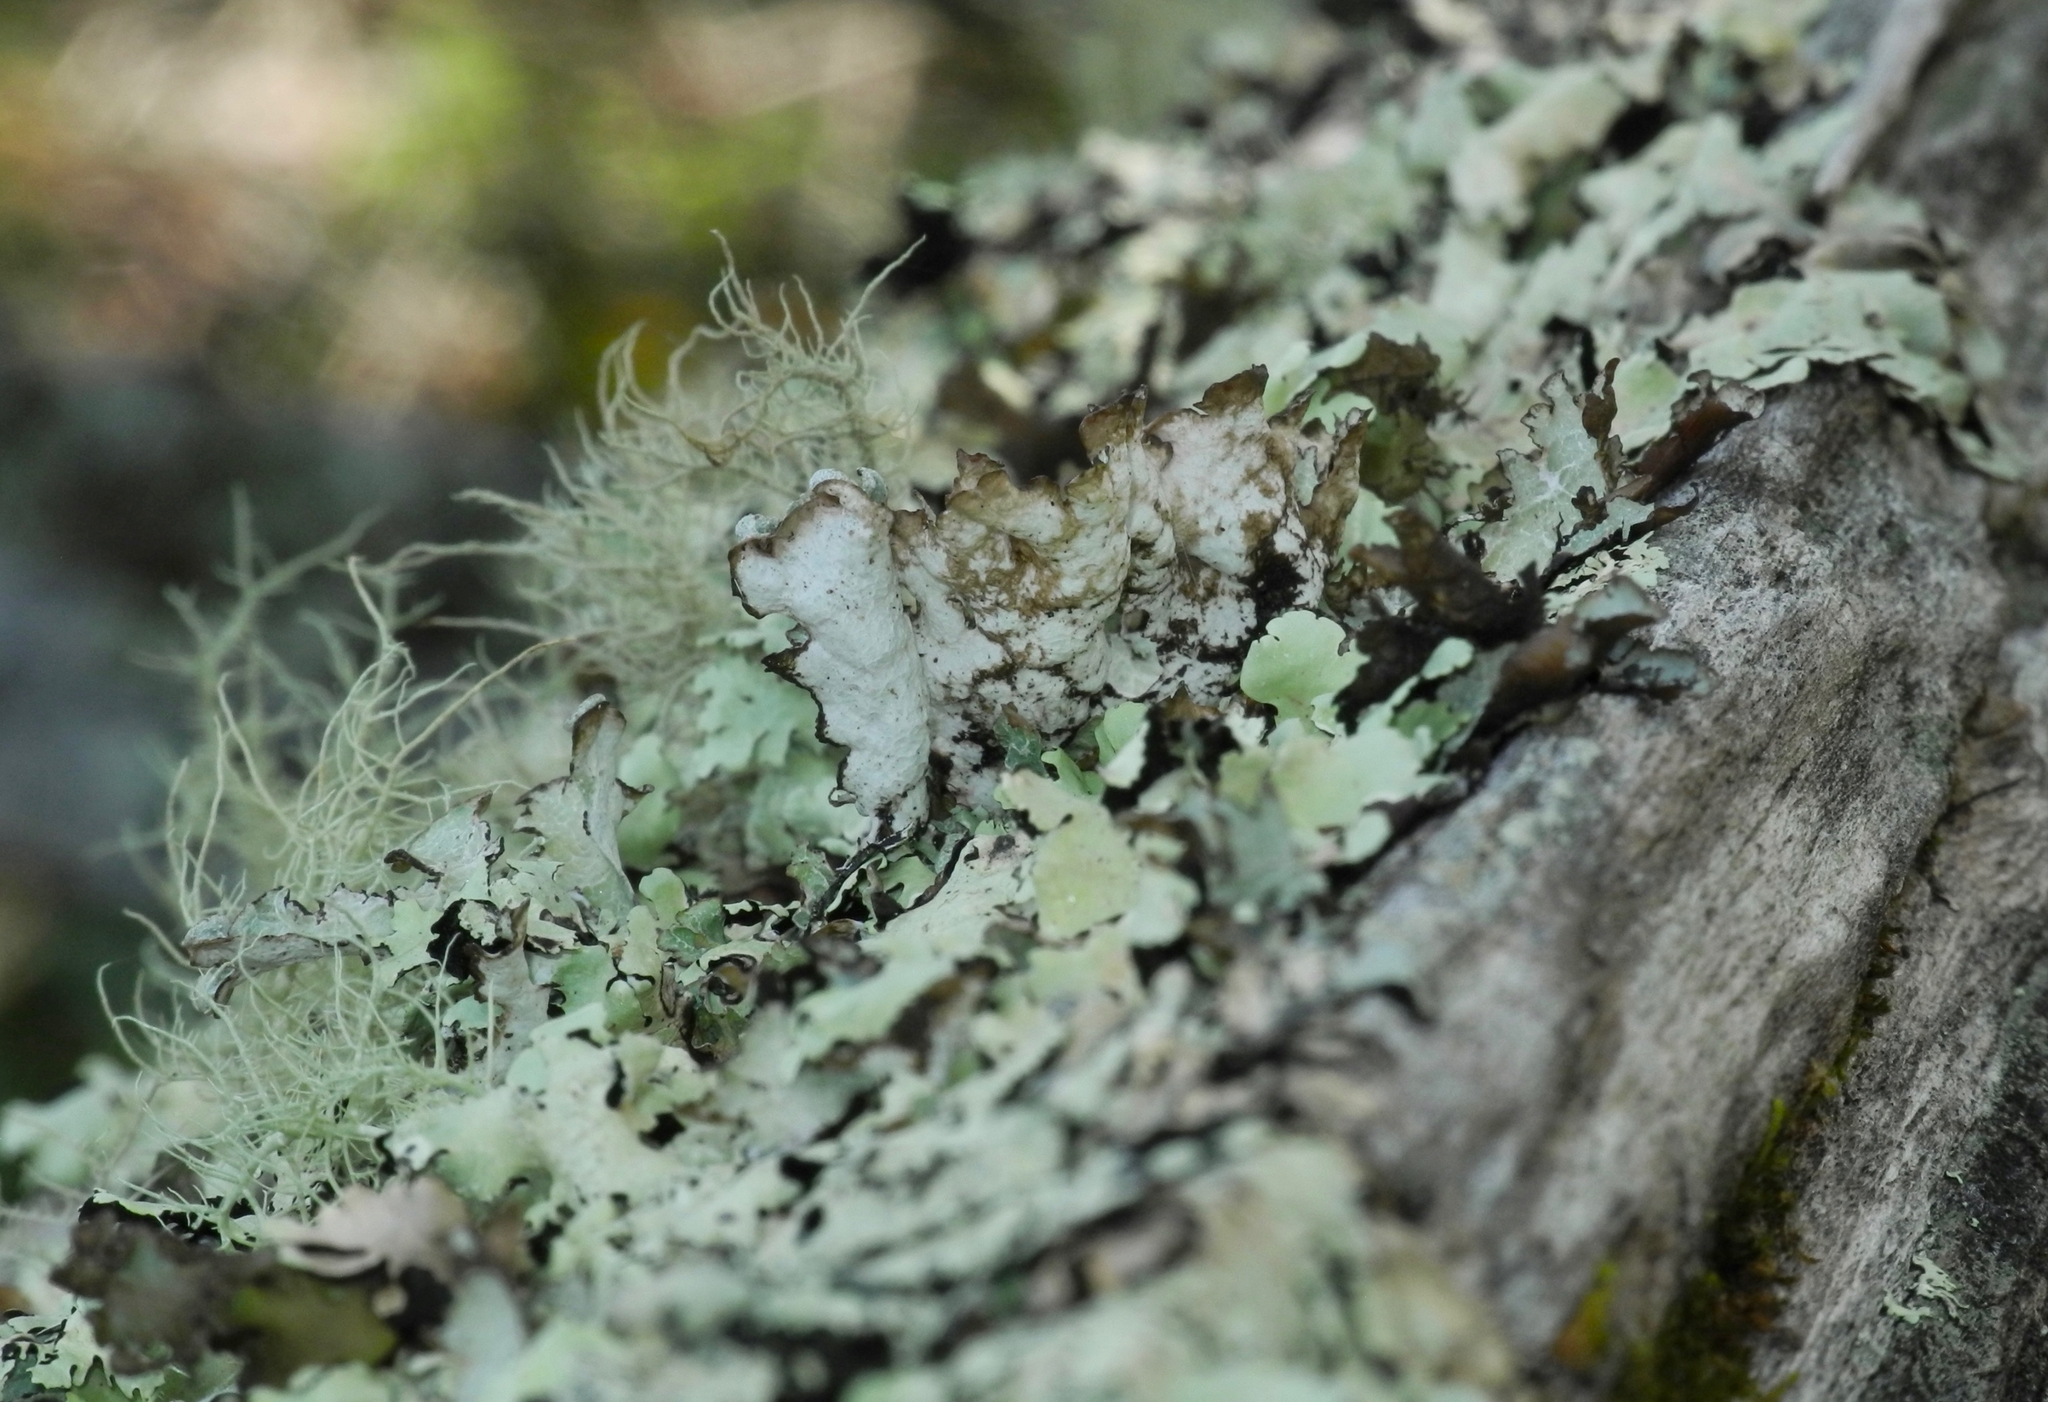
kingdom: Fungi
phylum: Ascomycota
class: Lecanoromycetes
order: Lecanorales
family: Parmeliaceae
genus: Platismatia
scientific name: Platismatia glauca
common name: Varied rag lichen
